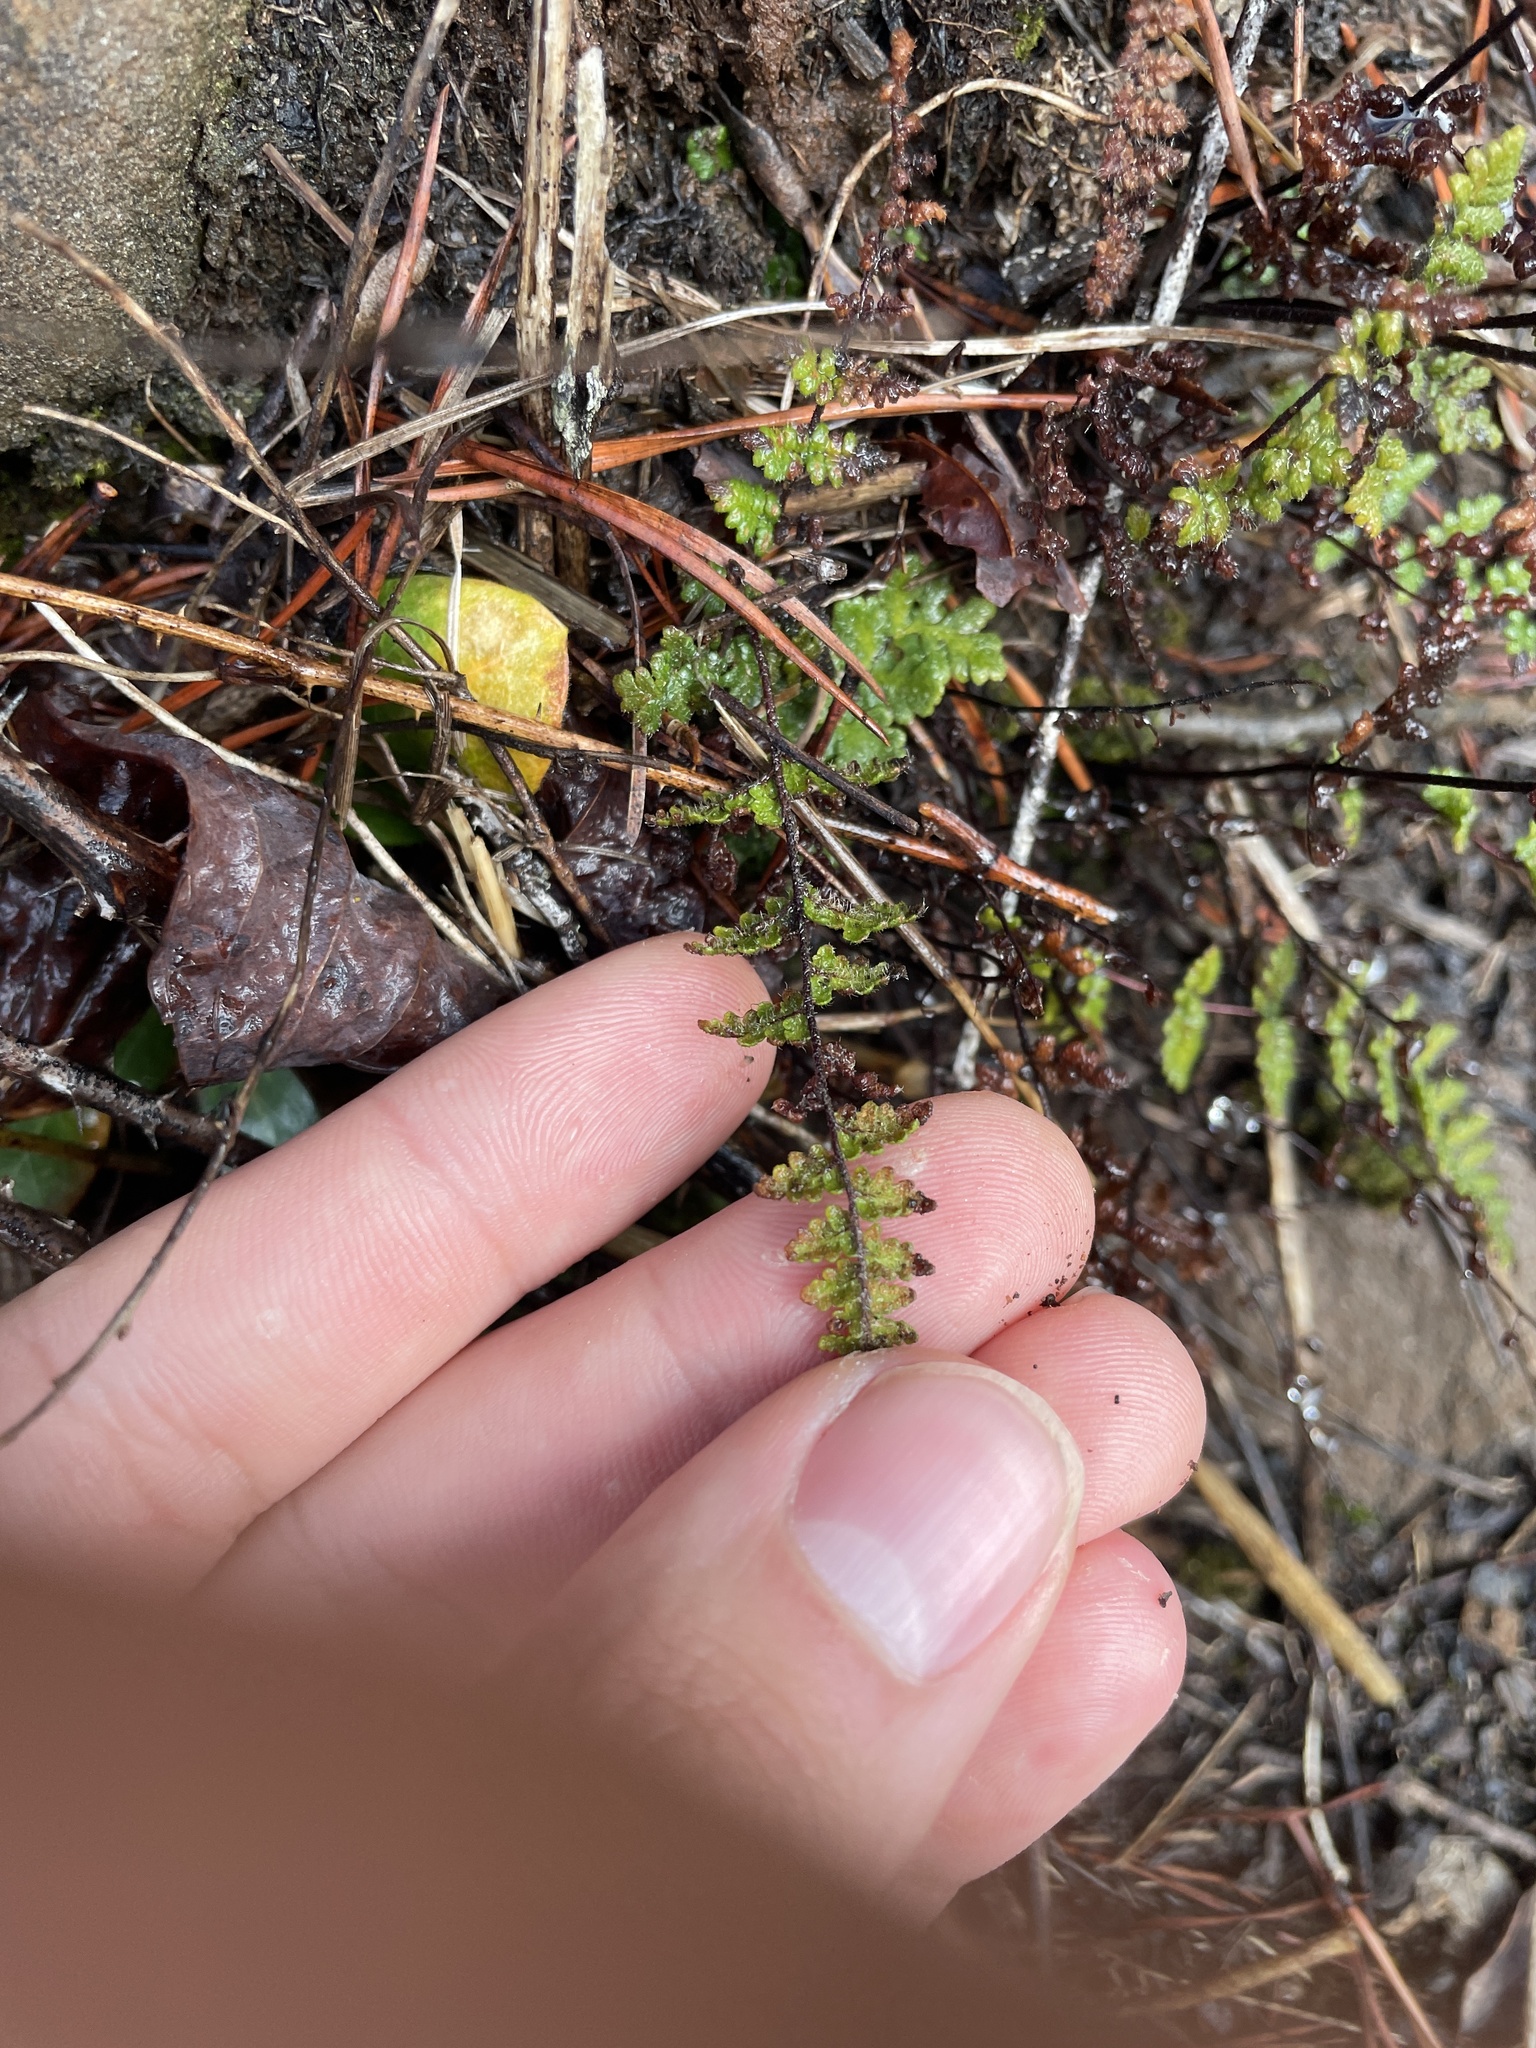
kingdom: Plantae
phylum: Tracheophyta
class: Polypodiopsida
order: Polypodiales
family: Pteridaceae
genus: Myriopteris
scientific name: Myriopteris lanosa
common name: Hairy lip fern
